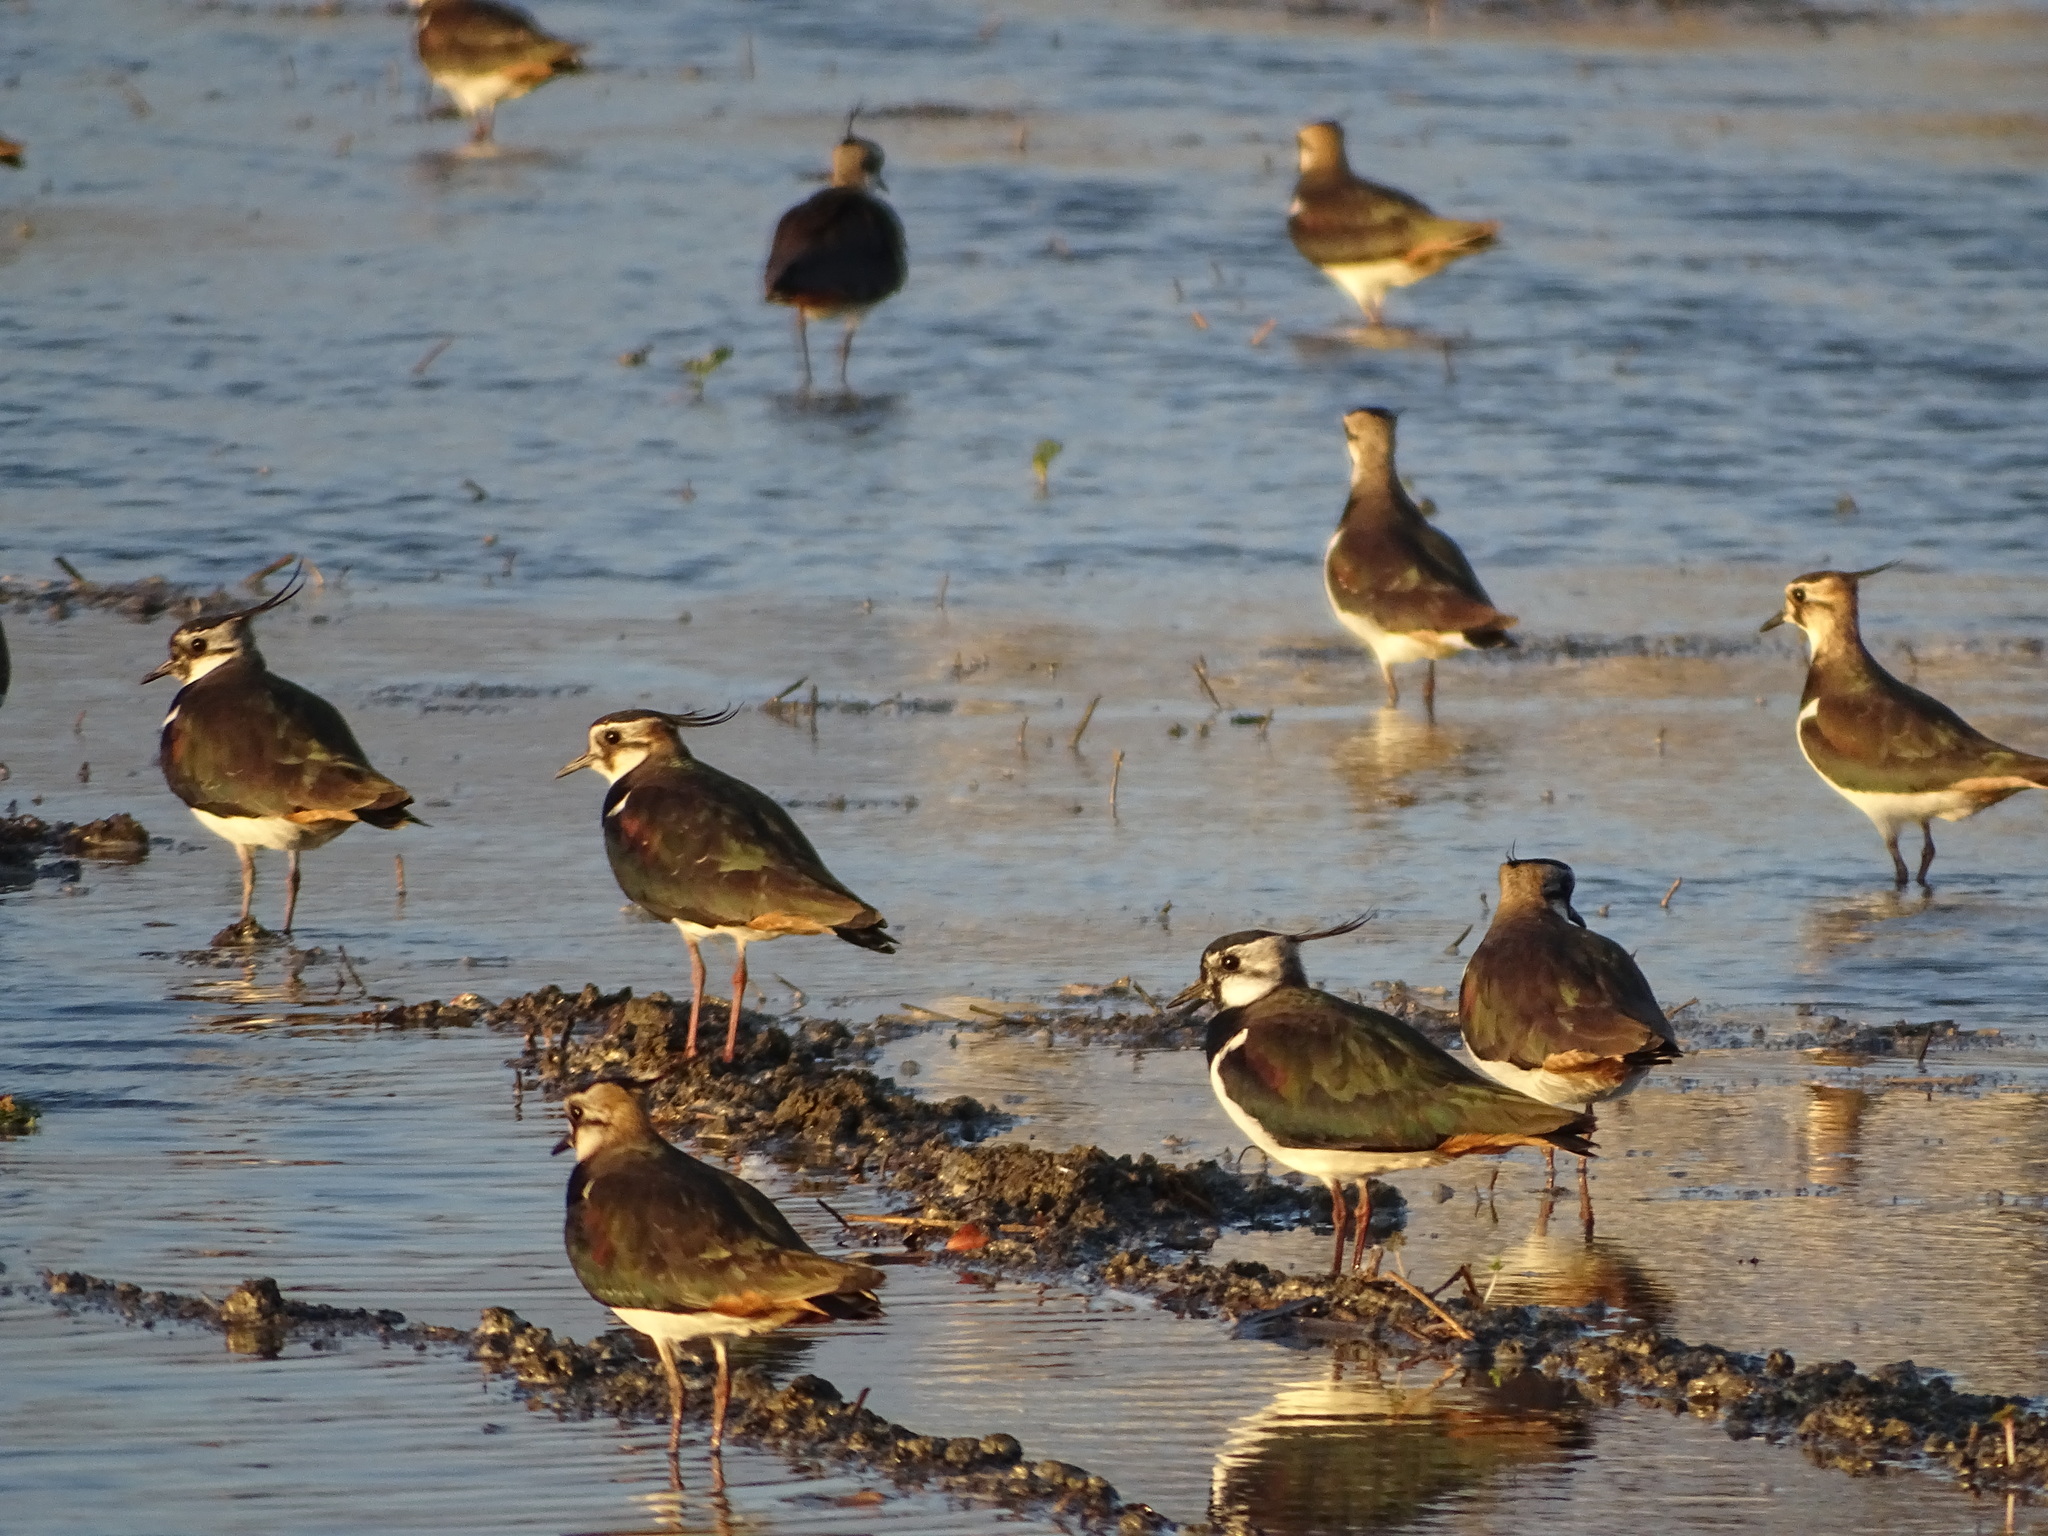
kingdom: Animalia
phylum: Chordata
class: Aves
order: Charadriiformes
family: Charadriidae
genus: Vanellus
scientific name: Vanellus vanellus
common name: Northern lapwing
